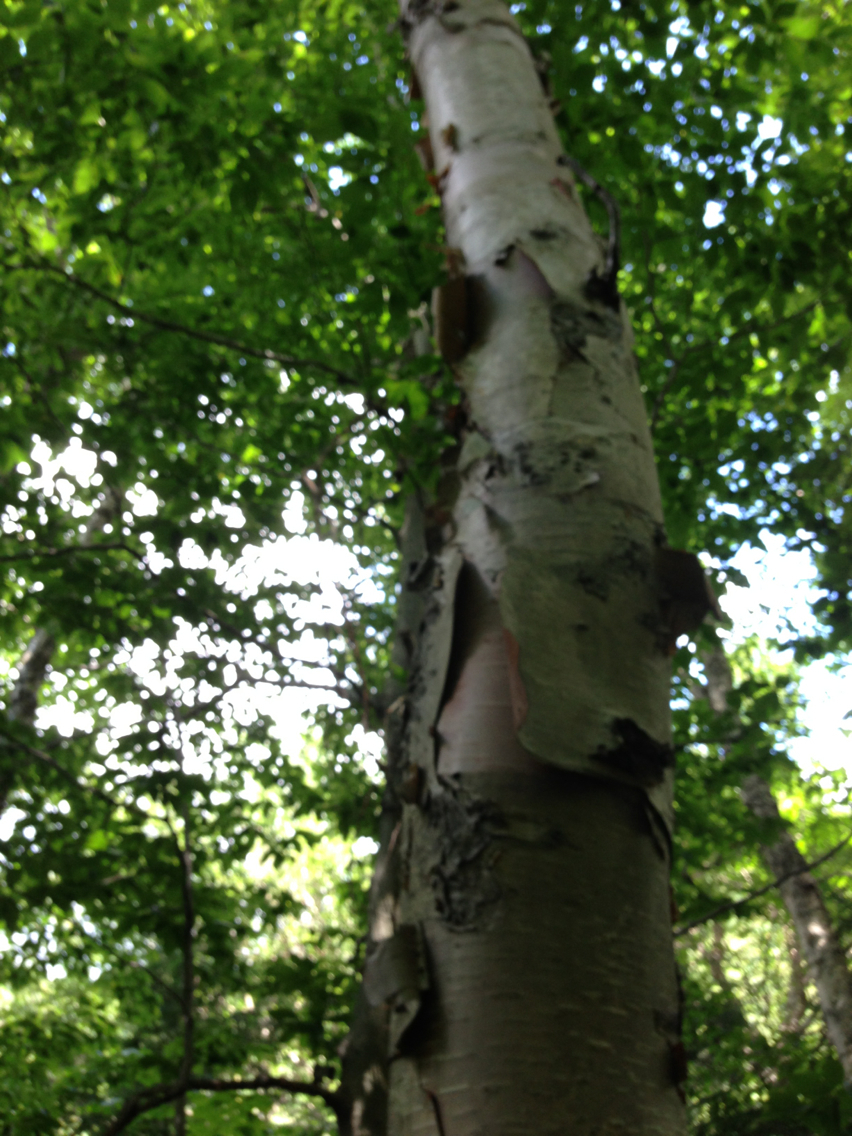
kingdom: Plantae
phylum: Tracheophyta
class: Magnoliopsida
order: Fagales
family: Betulaceae
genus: Betula
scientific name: Betula cordifolia
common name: Mountain white birch
